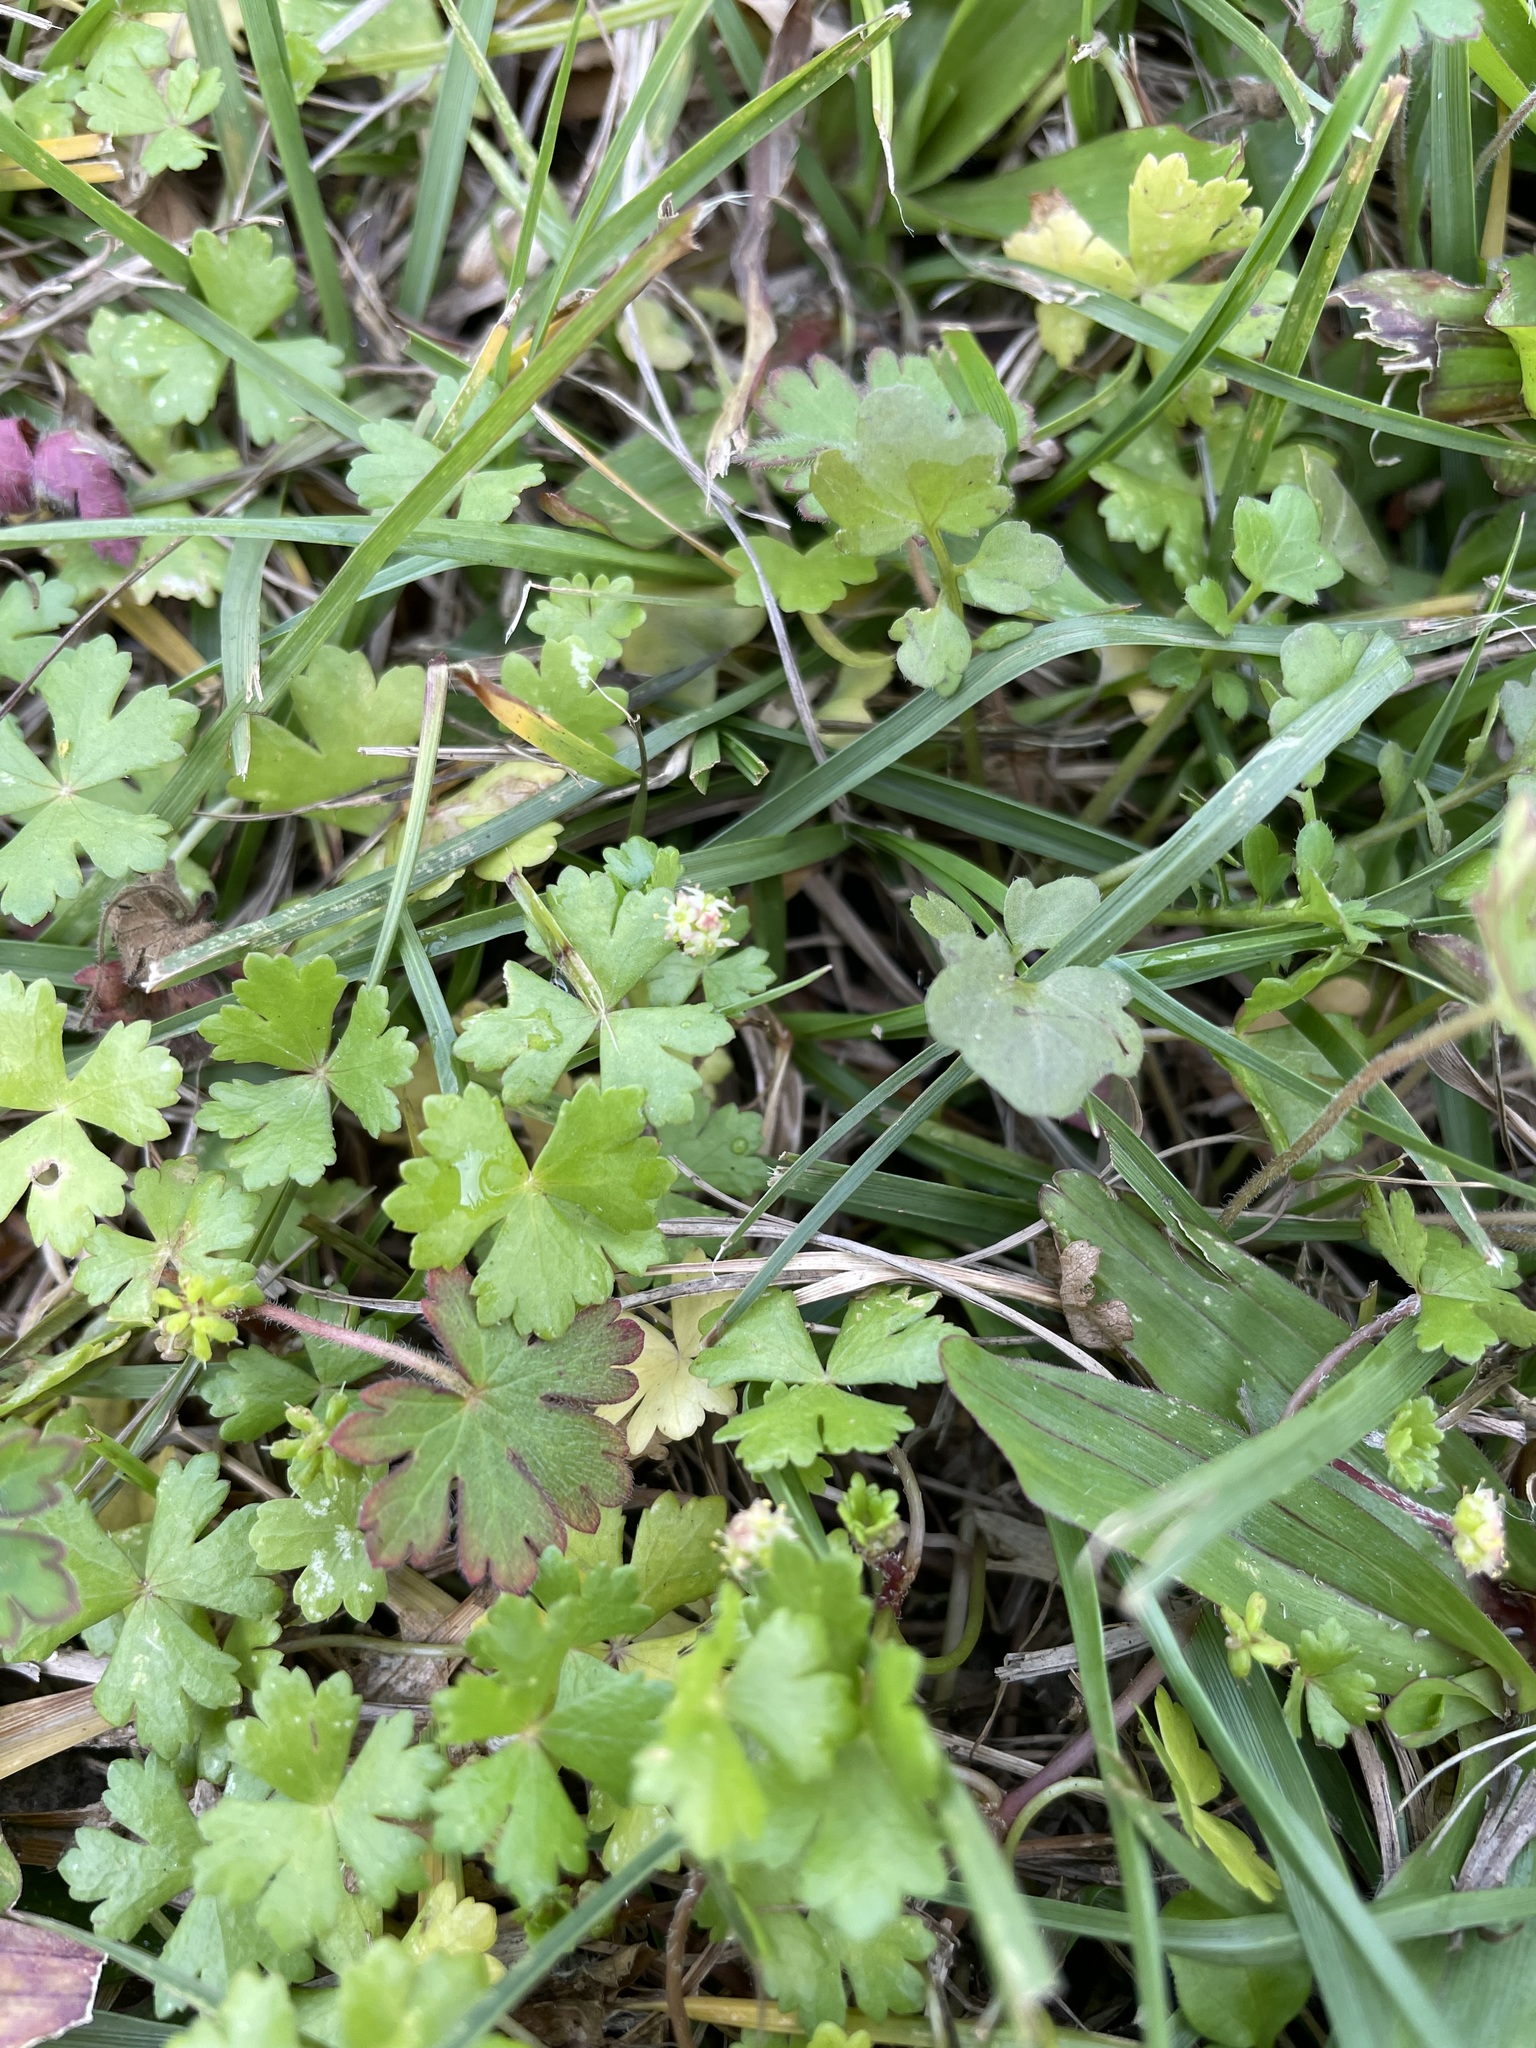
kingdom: Plantae
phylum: Tracheophyta
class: Magnoliopsida
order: Apiales
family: Araliaceae
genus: Hydrocotyle
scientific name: Hydrocotyle batrachium
